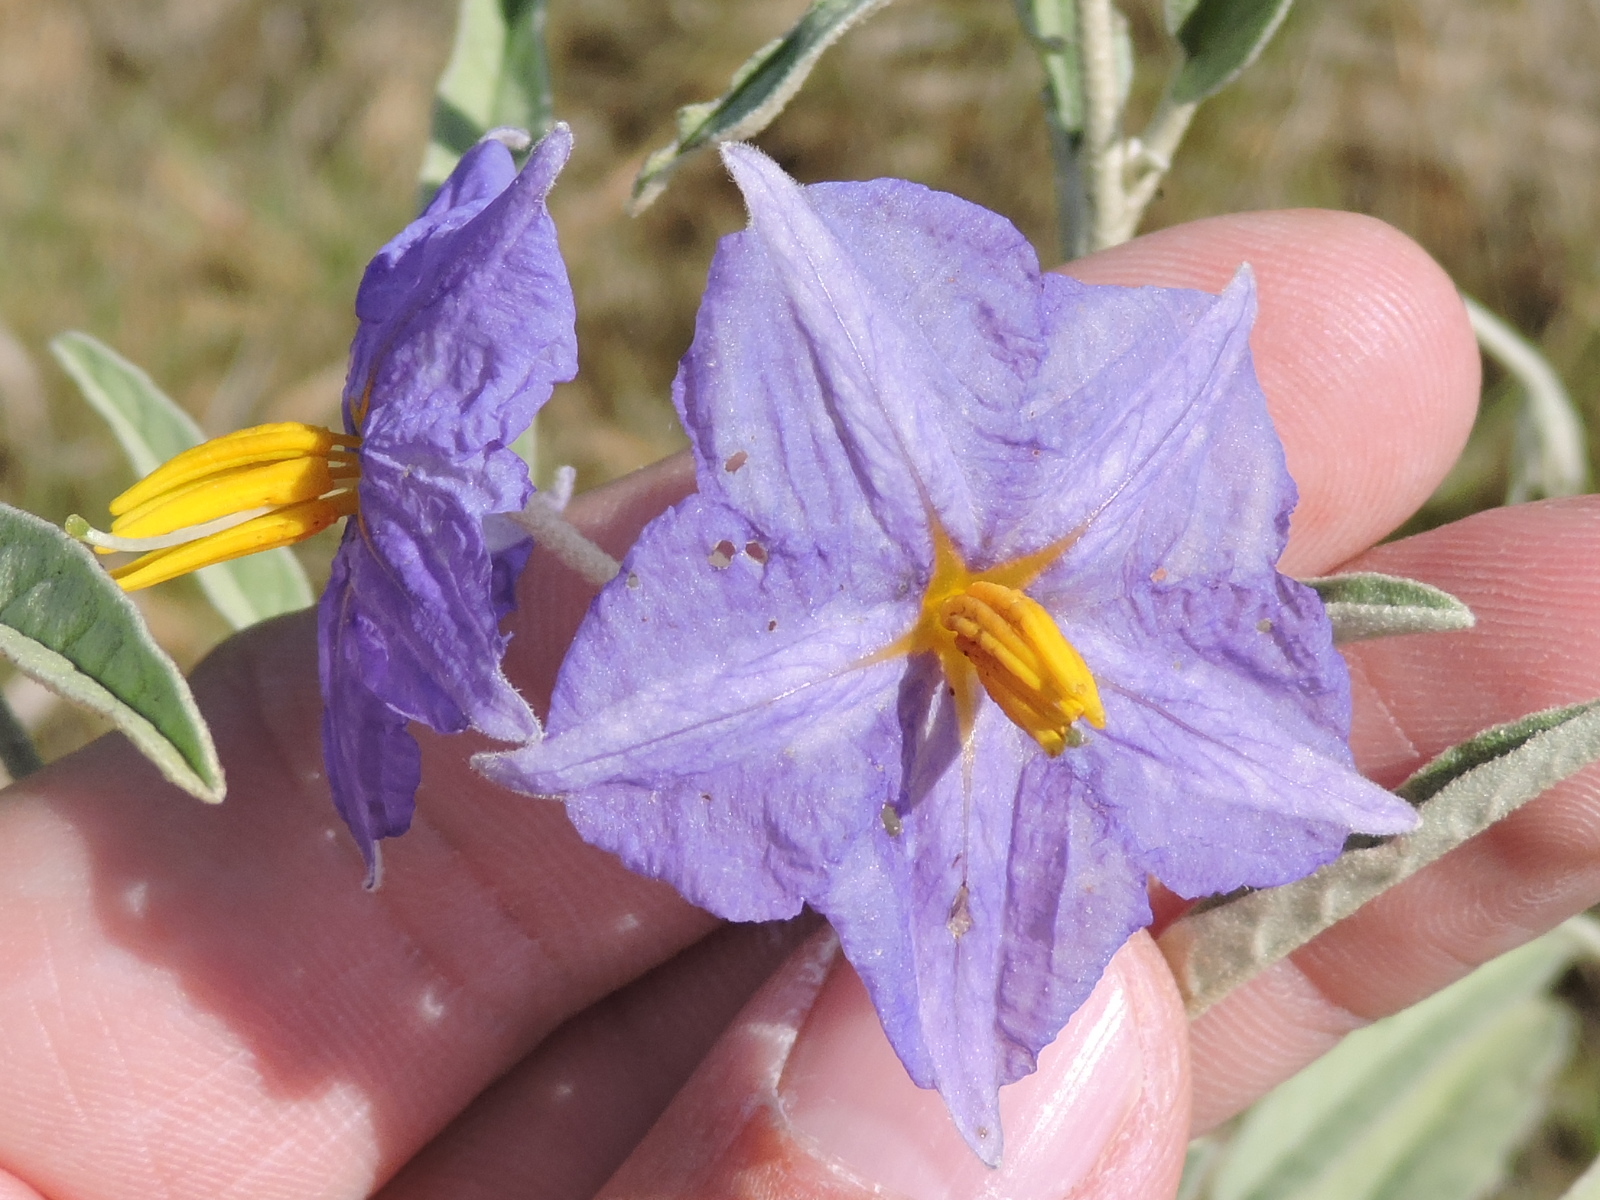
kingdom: Plantae
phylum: Tracheophyta
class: Magnoliopsida
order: Solanales
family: Solanaceae
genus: Solanum
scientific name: Solanum elaeagnifolium
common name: Silverleaf nightshade
